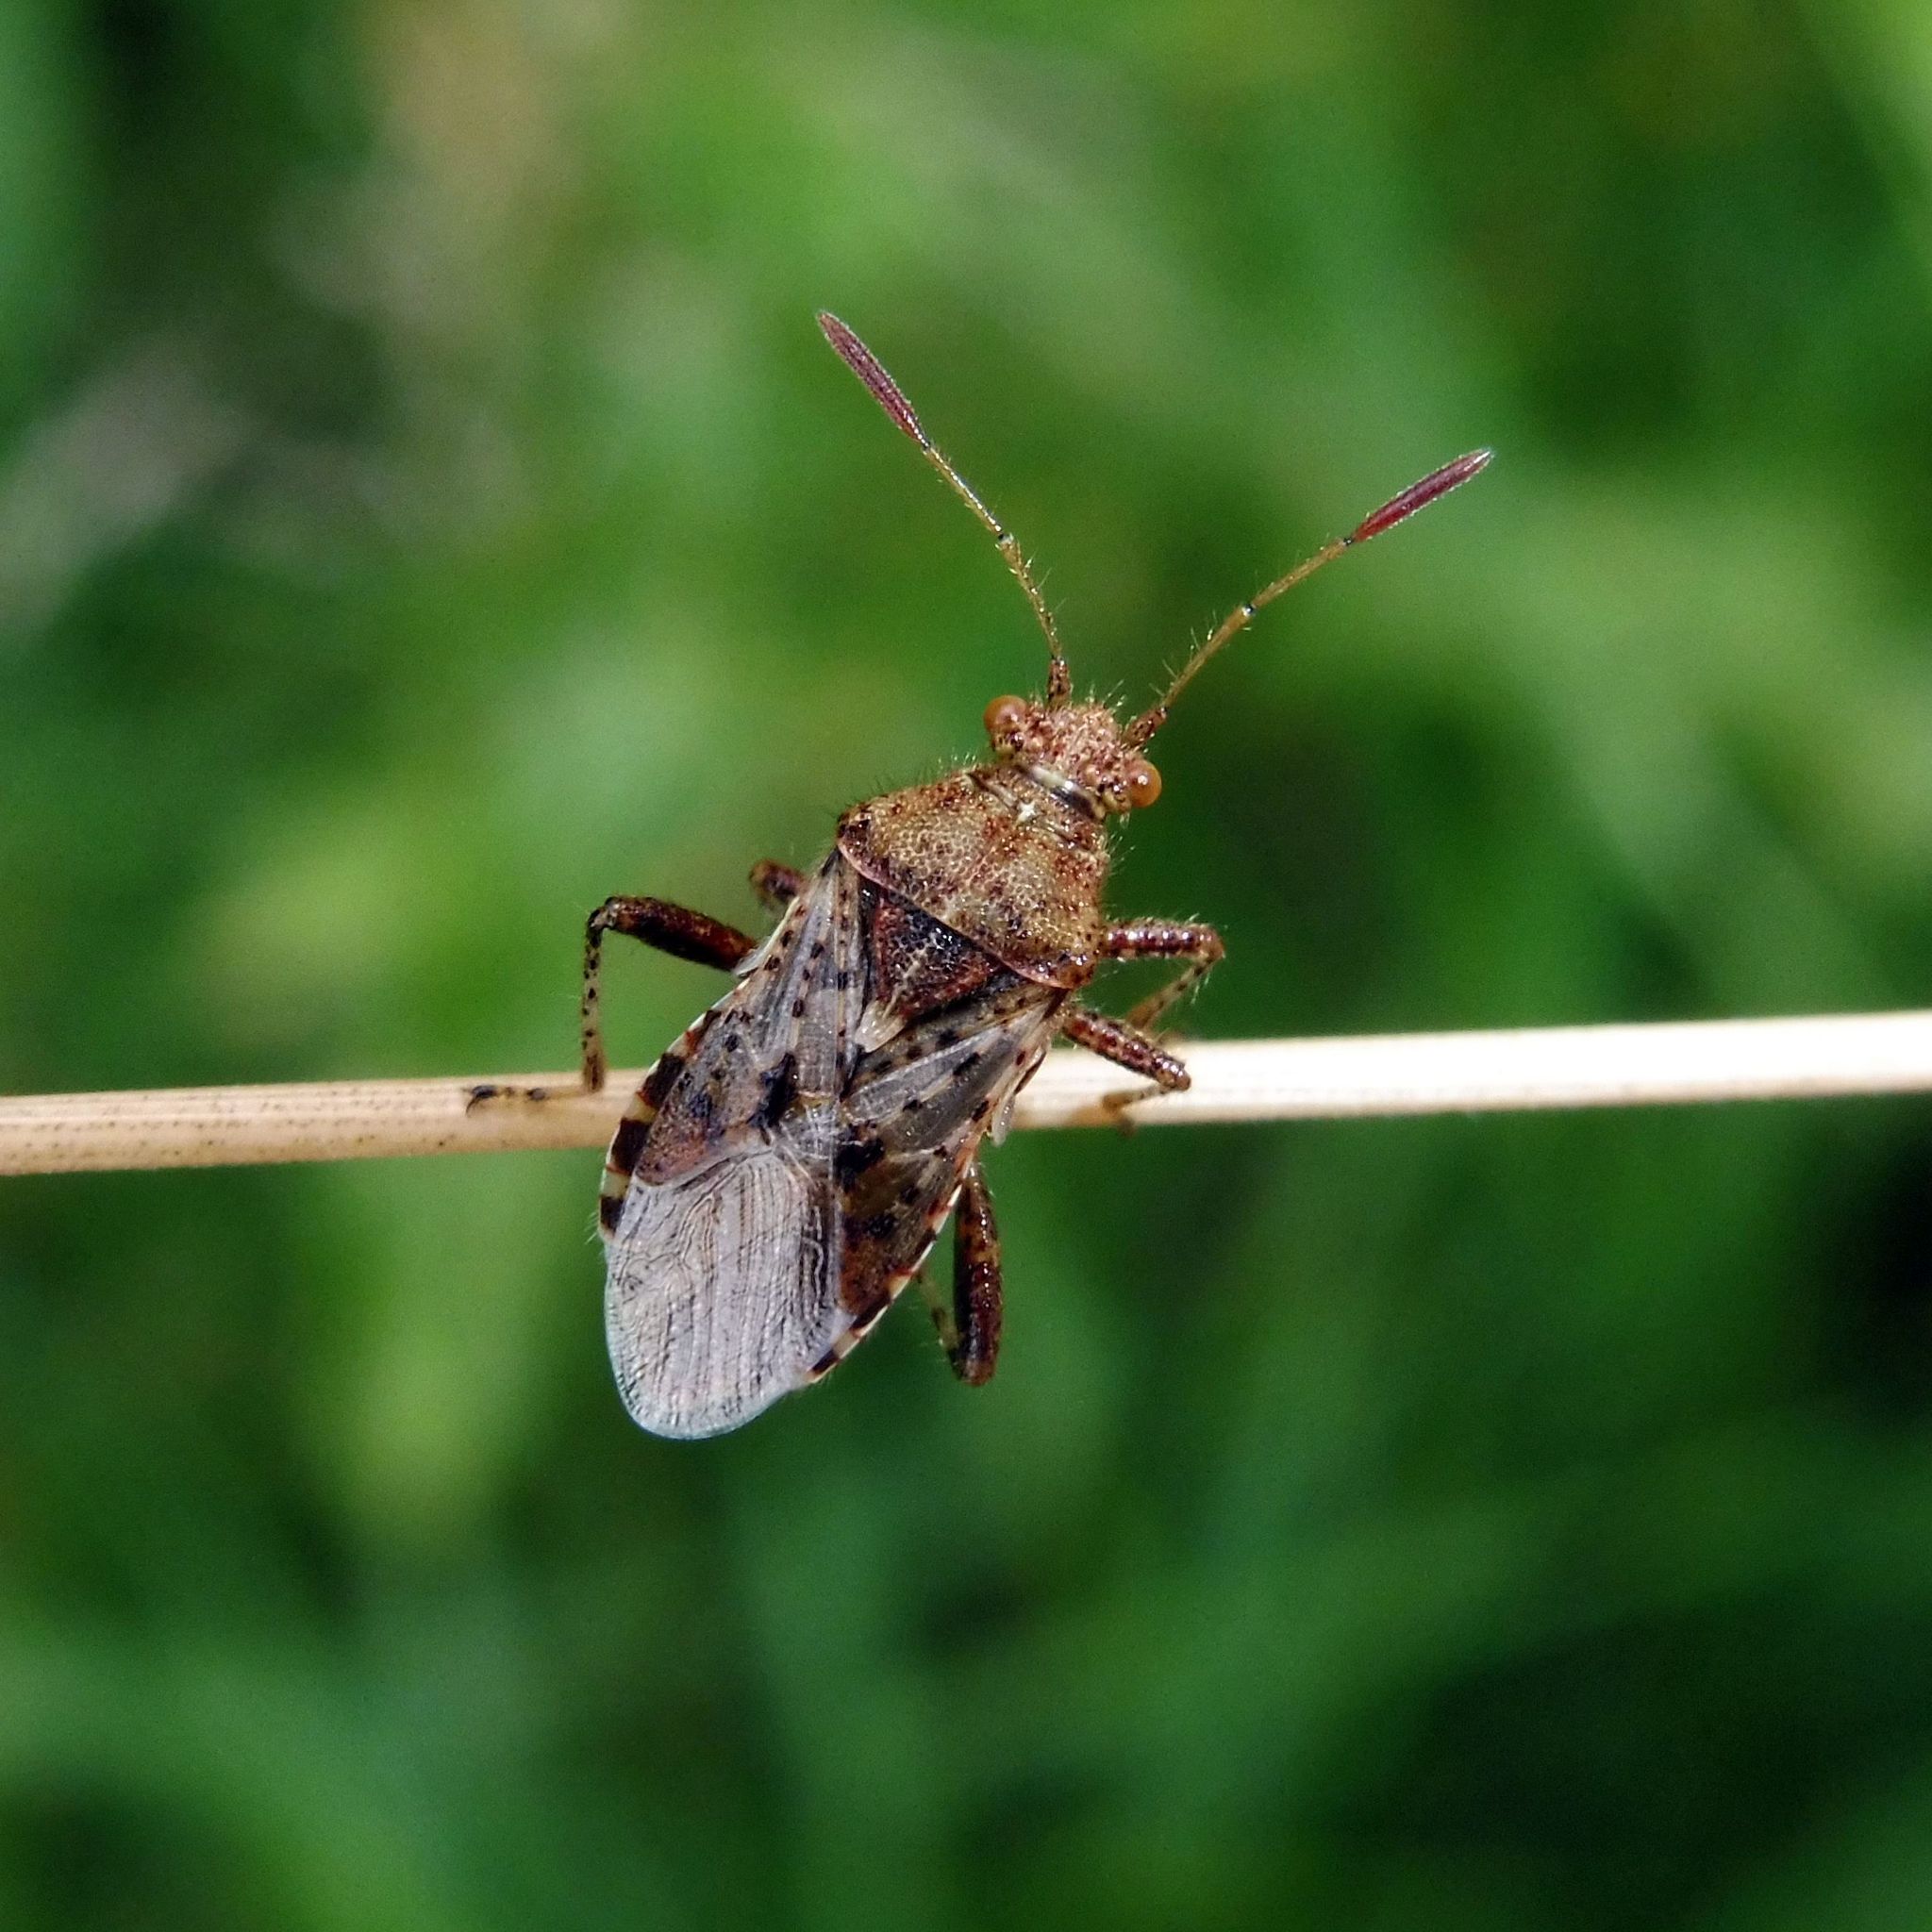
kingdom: Animalia
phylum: Arthropoda
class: Insecta
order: Hemiptera
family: Rhopalidae
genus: Rhopalus
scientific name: Rhopalus subrufus
